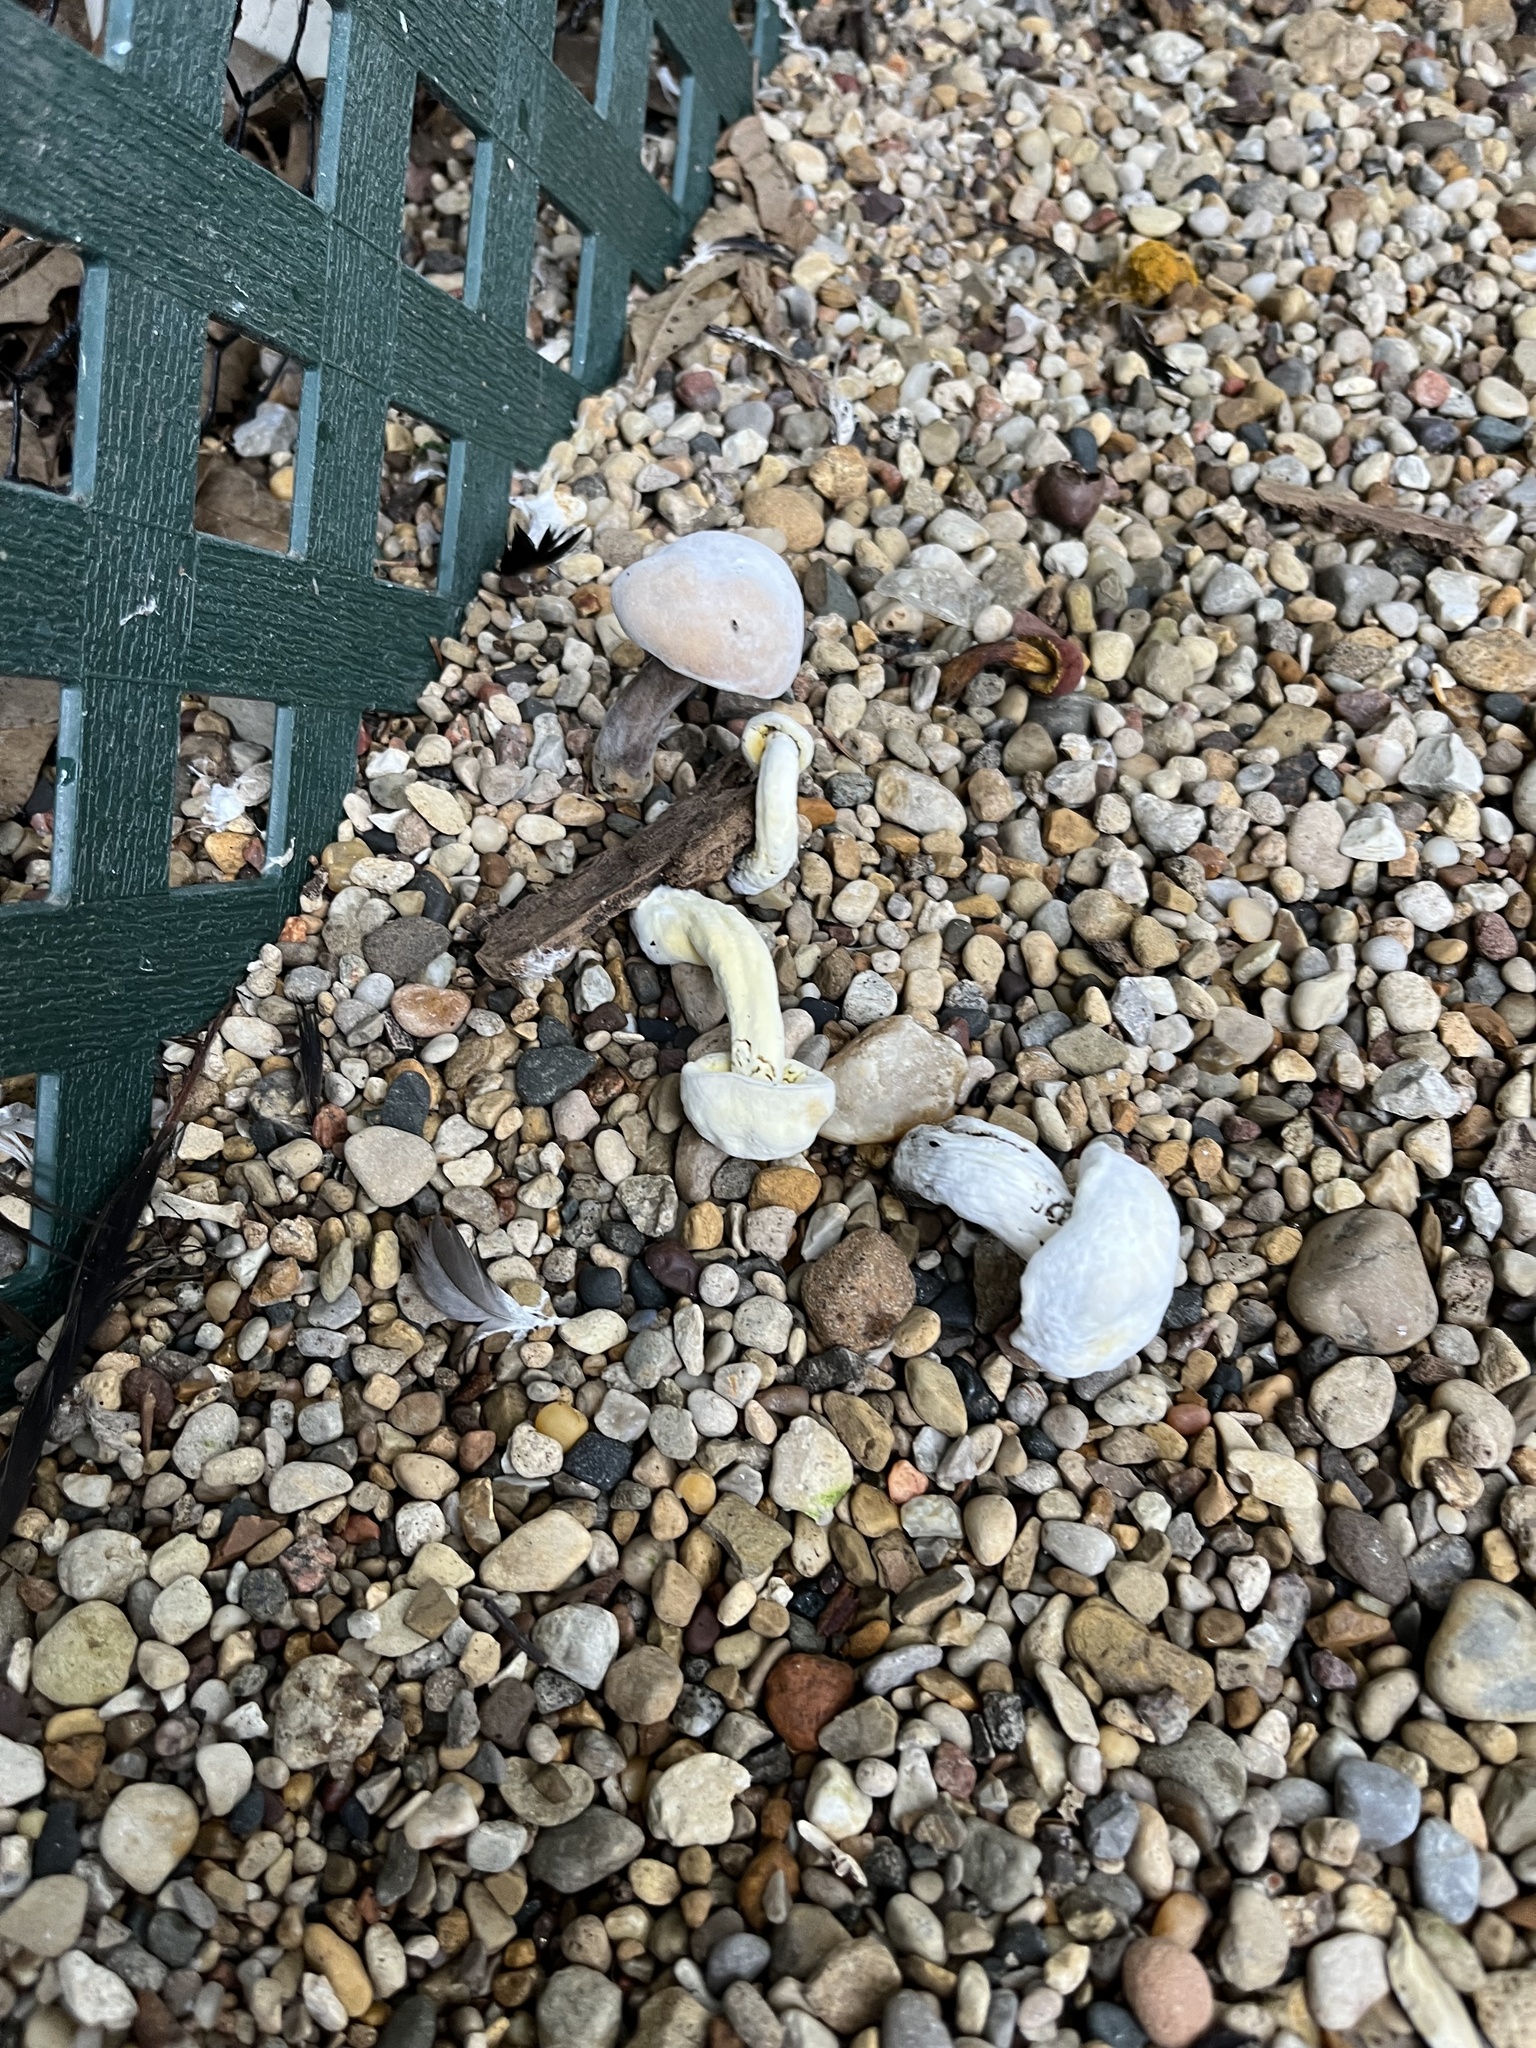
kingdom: Fungi
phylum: Ascomycota
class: Sordariomycetes
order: Hypocreales
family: Hypocreaceae
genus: Hypomyces
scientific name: Hypomyces chrysospermus
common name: Bolete mould
